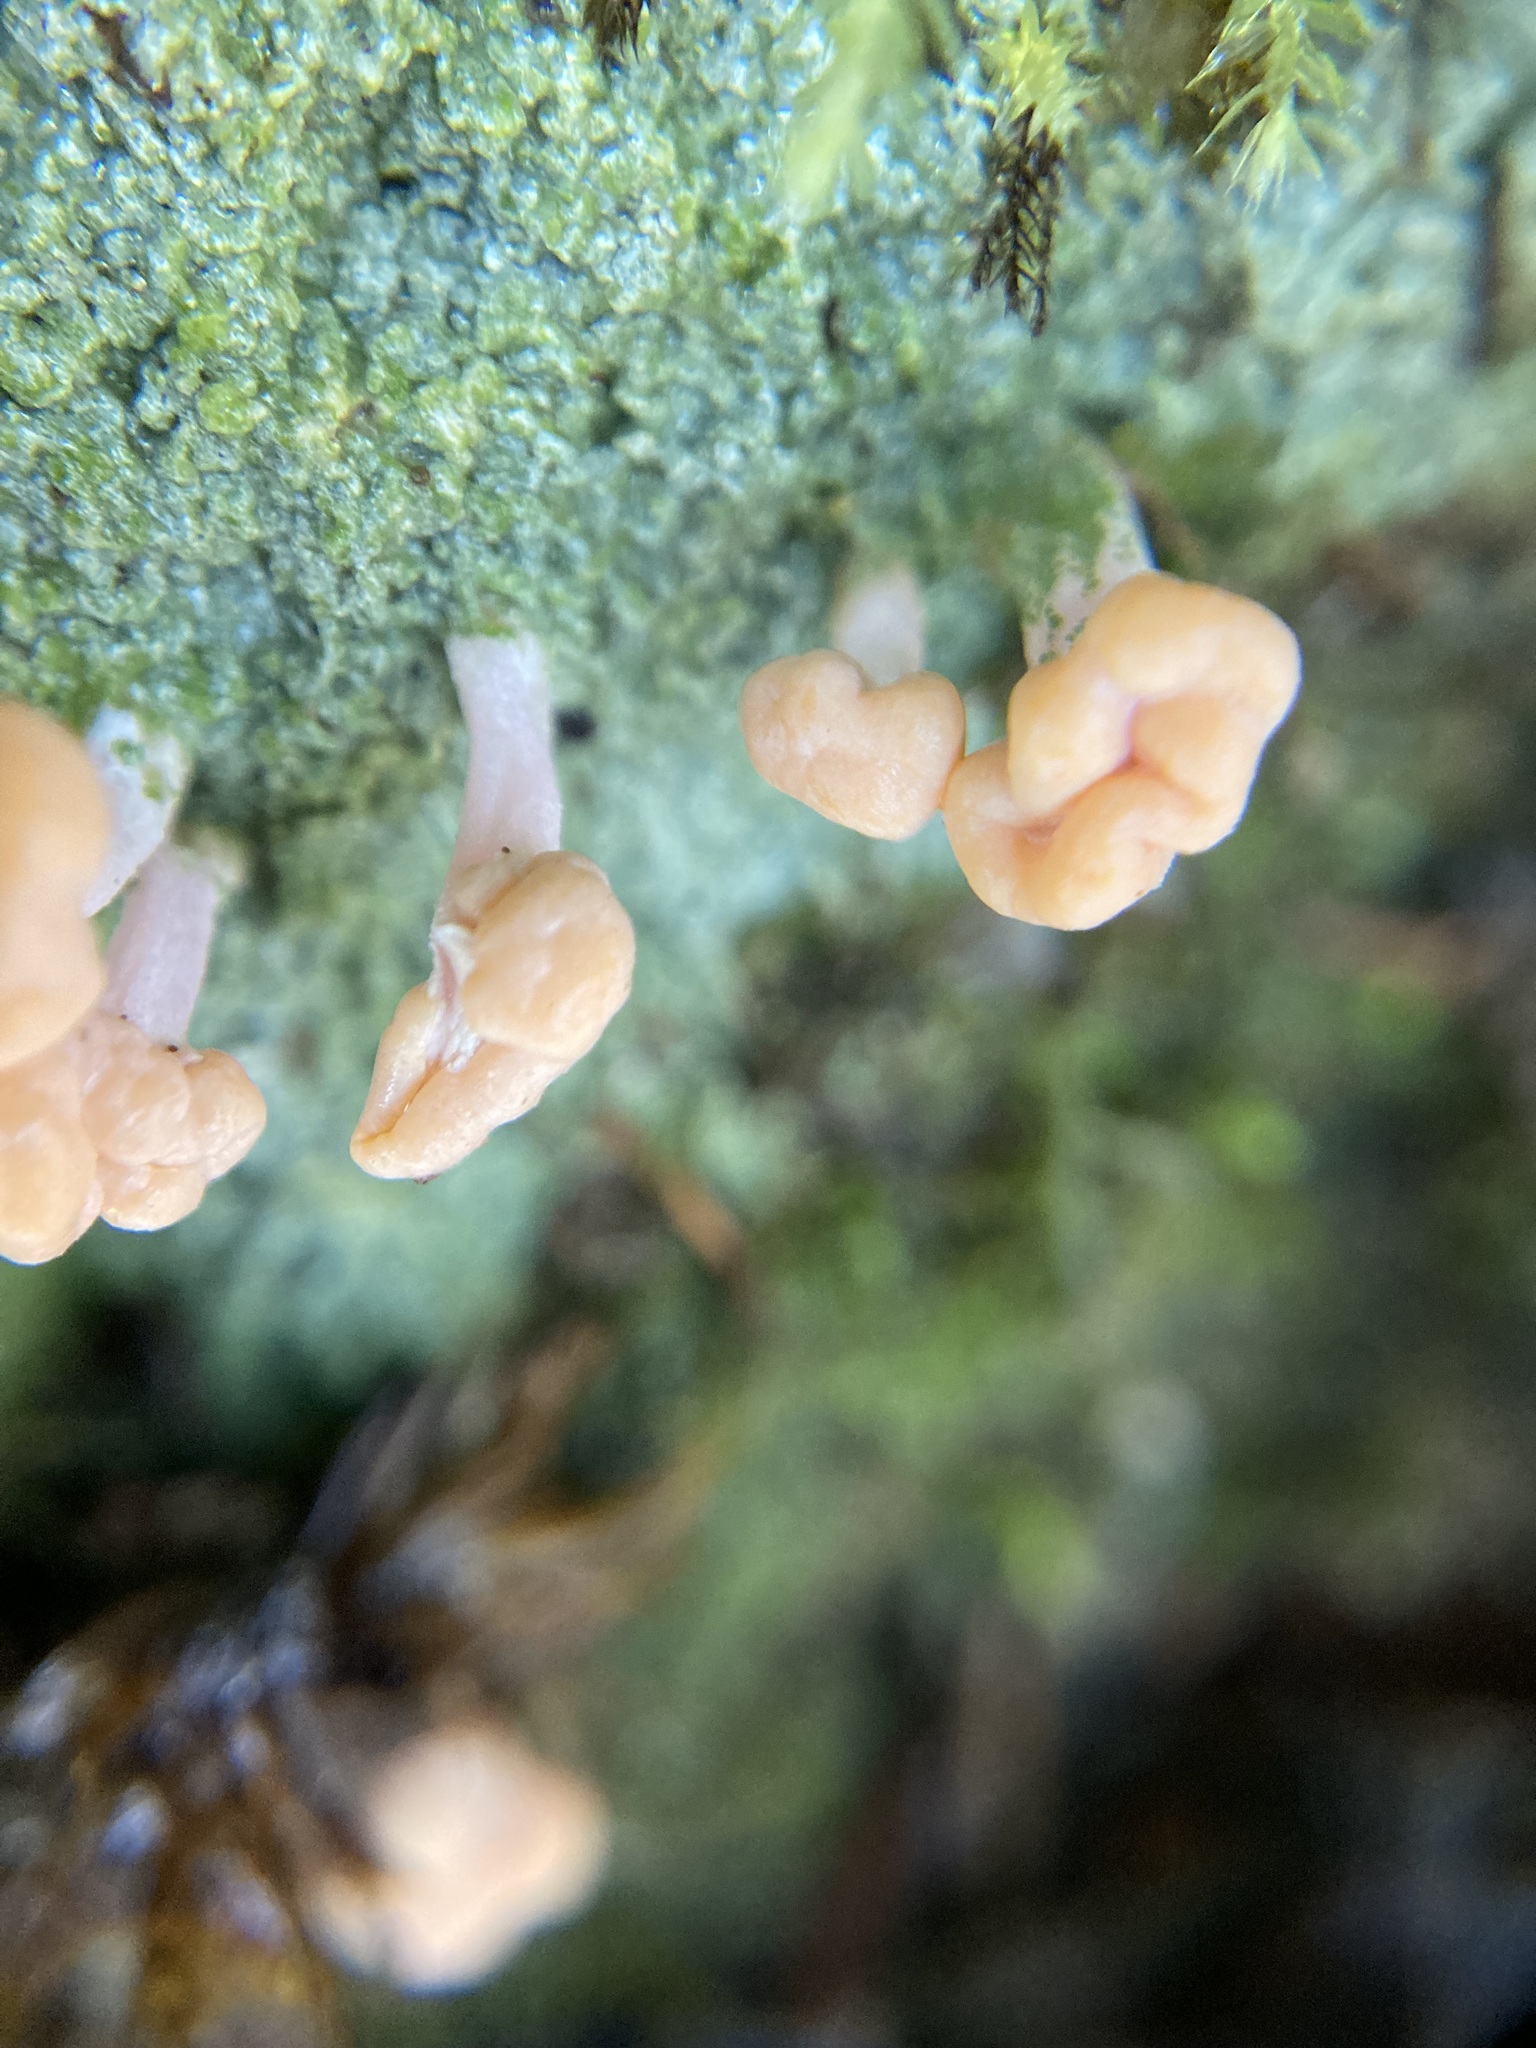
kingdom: Fungi
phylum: Ascomycota
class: Lecanoromycetes
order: Pertusariales
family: Icmadophilaceae
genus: Dibaeis
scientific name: Dibaeis arcuata
